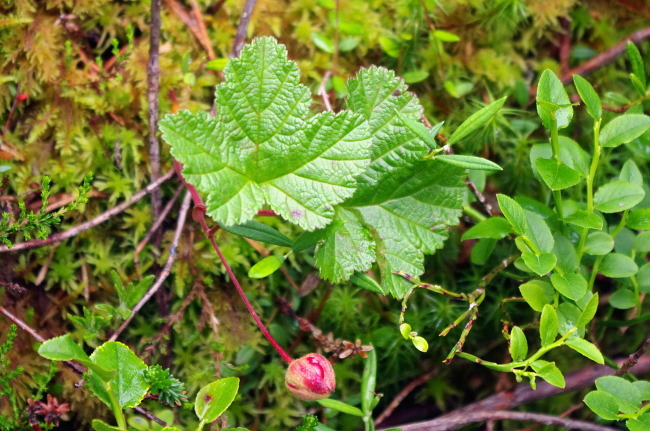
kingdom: Plantae
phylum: Tracheophyta
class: Magnoliopsida
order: Rosales
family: Rosaceae
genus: Rubus
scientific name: Rubus chamaemorus
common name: Cloudberry
